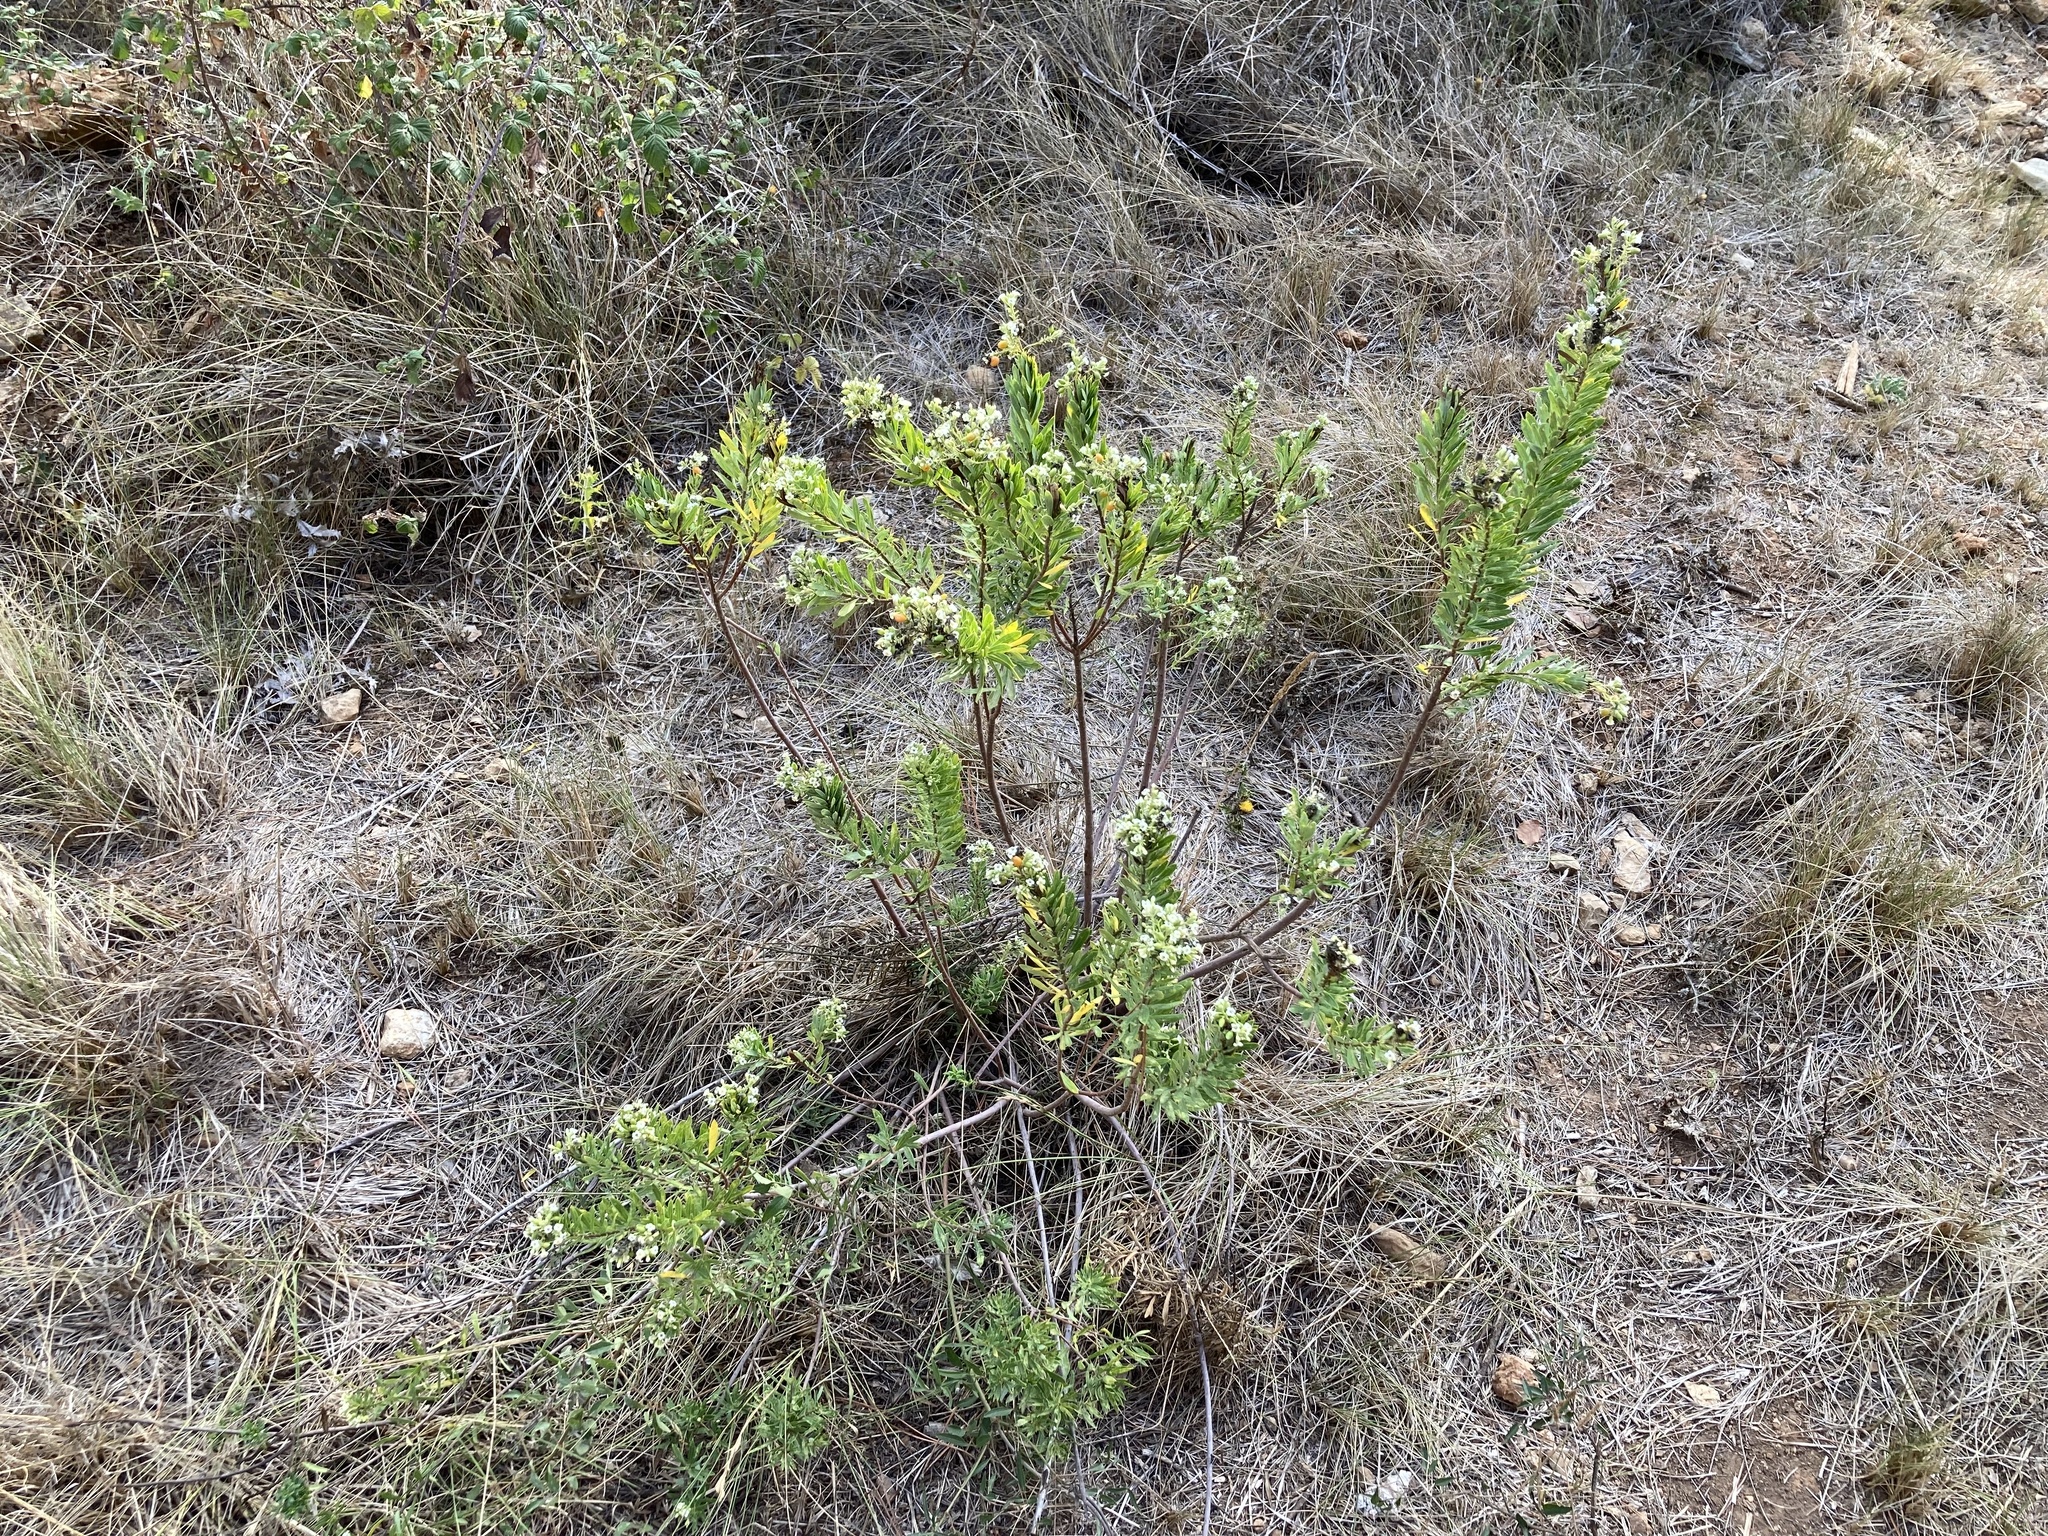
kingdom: Plantae
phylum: Tracheophyta
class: Magnoliopsida
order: Malvales
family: Thymelaeaceae
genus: Daphne
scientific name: Daphne gnidium
